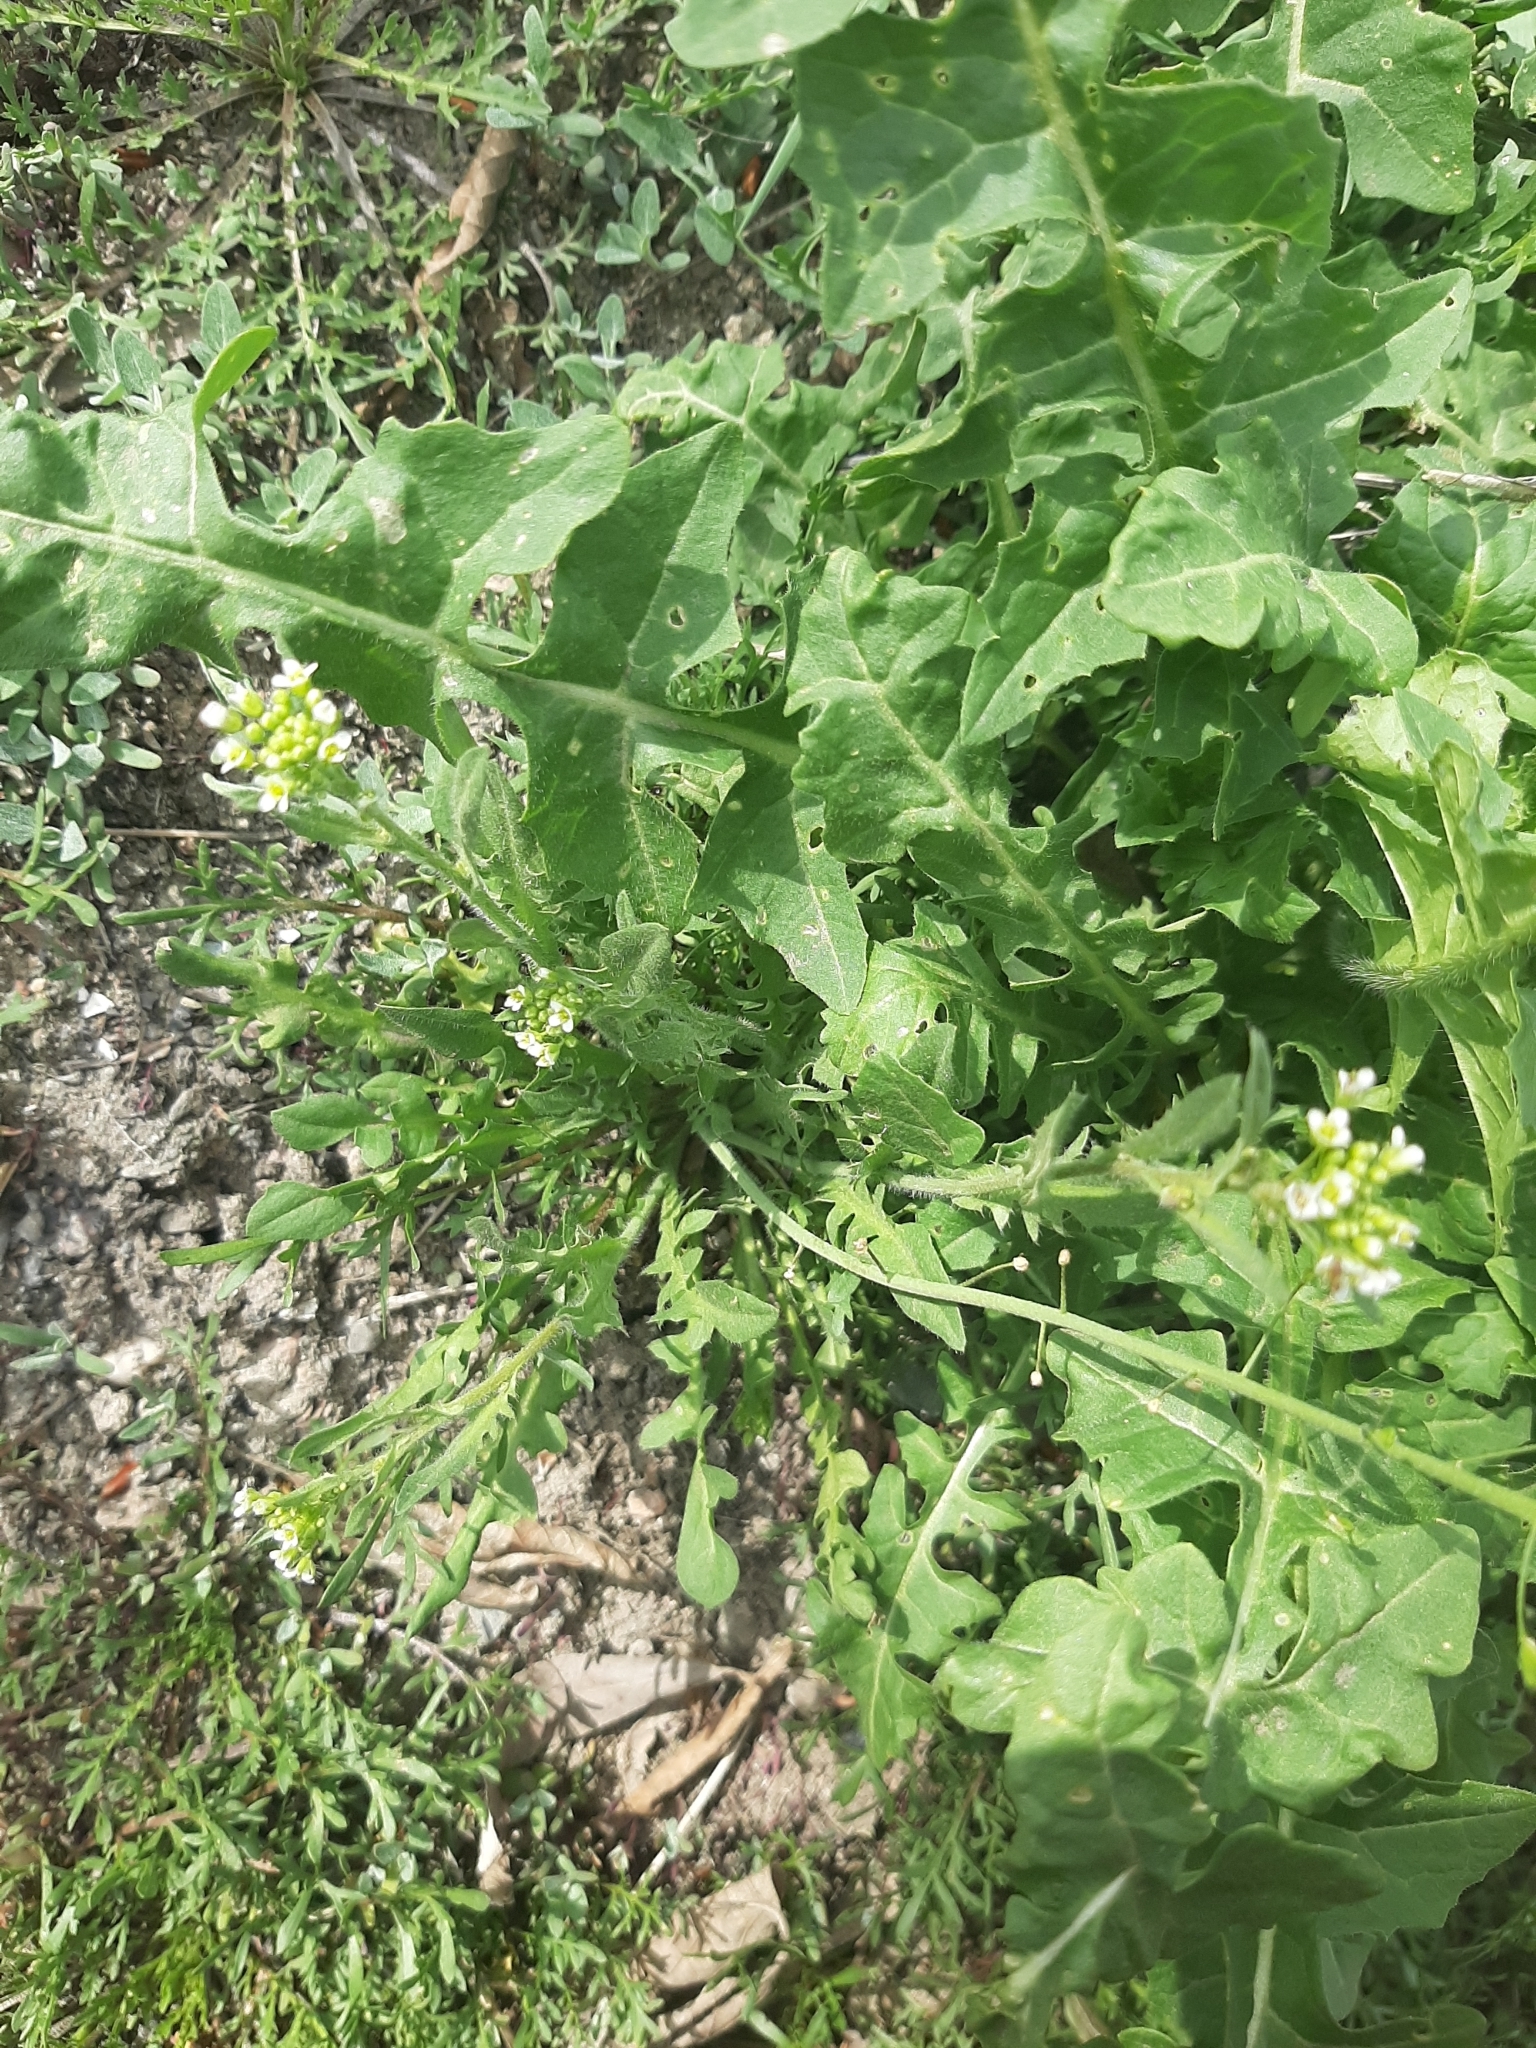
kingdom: Plantae
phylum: Tracheophyta
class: Magnoliopsida
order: Brassicales
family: Brassicaceae
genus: Capsella
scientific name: Capsella bursa-pastoris
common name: Shepherd's purse
